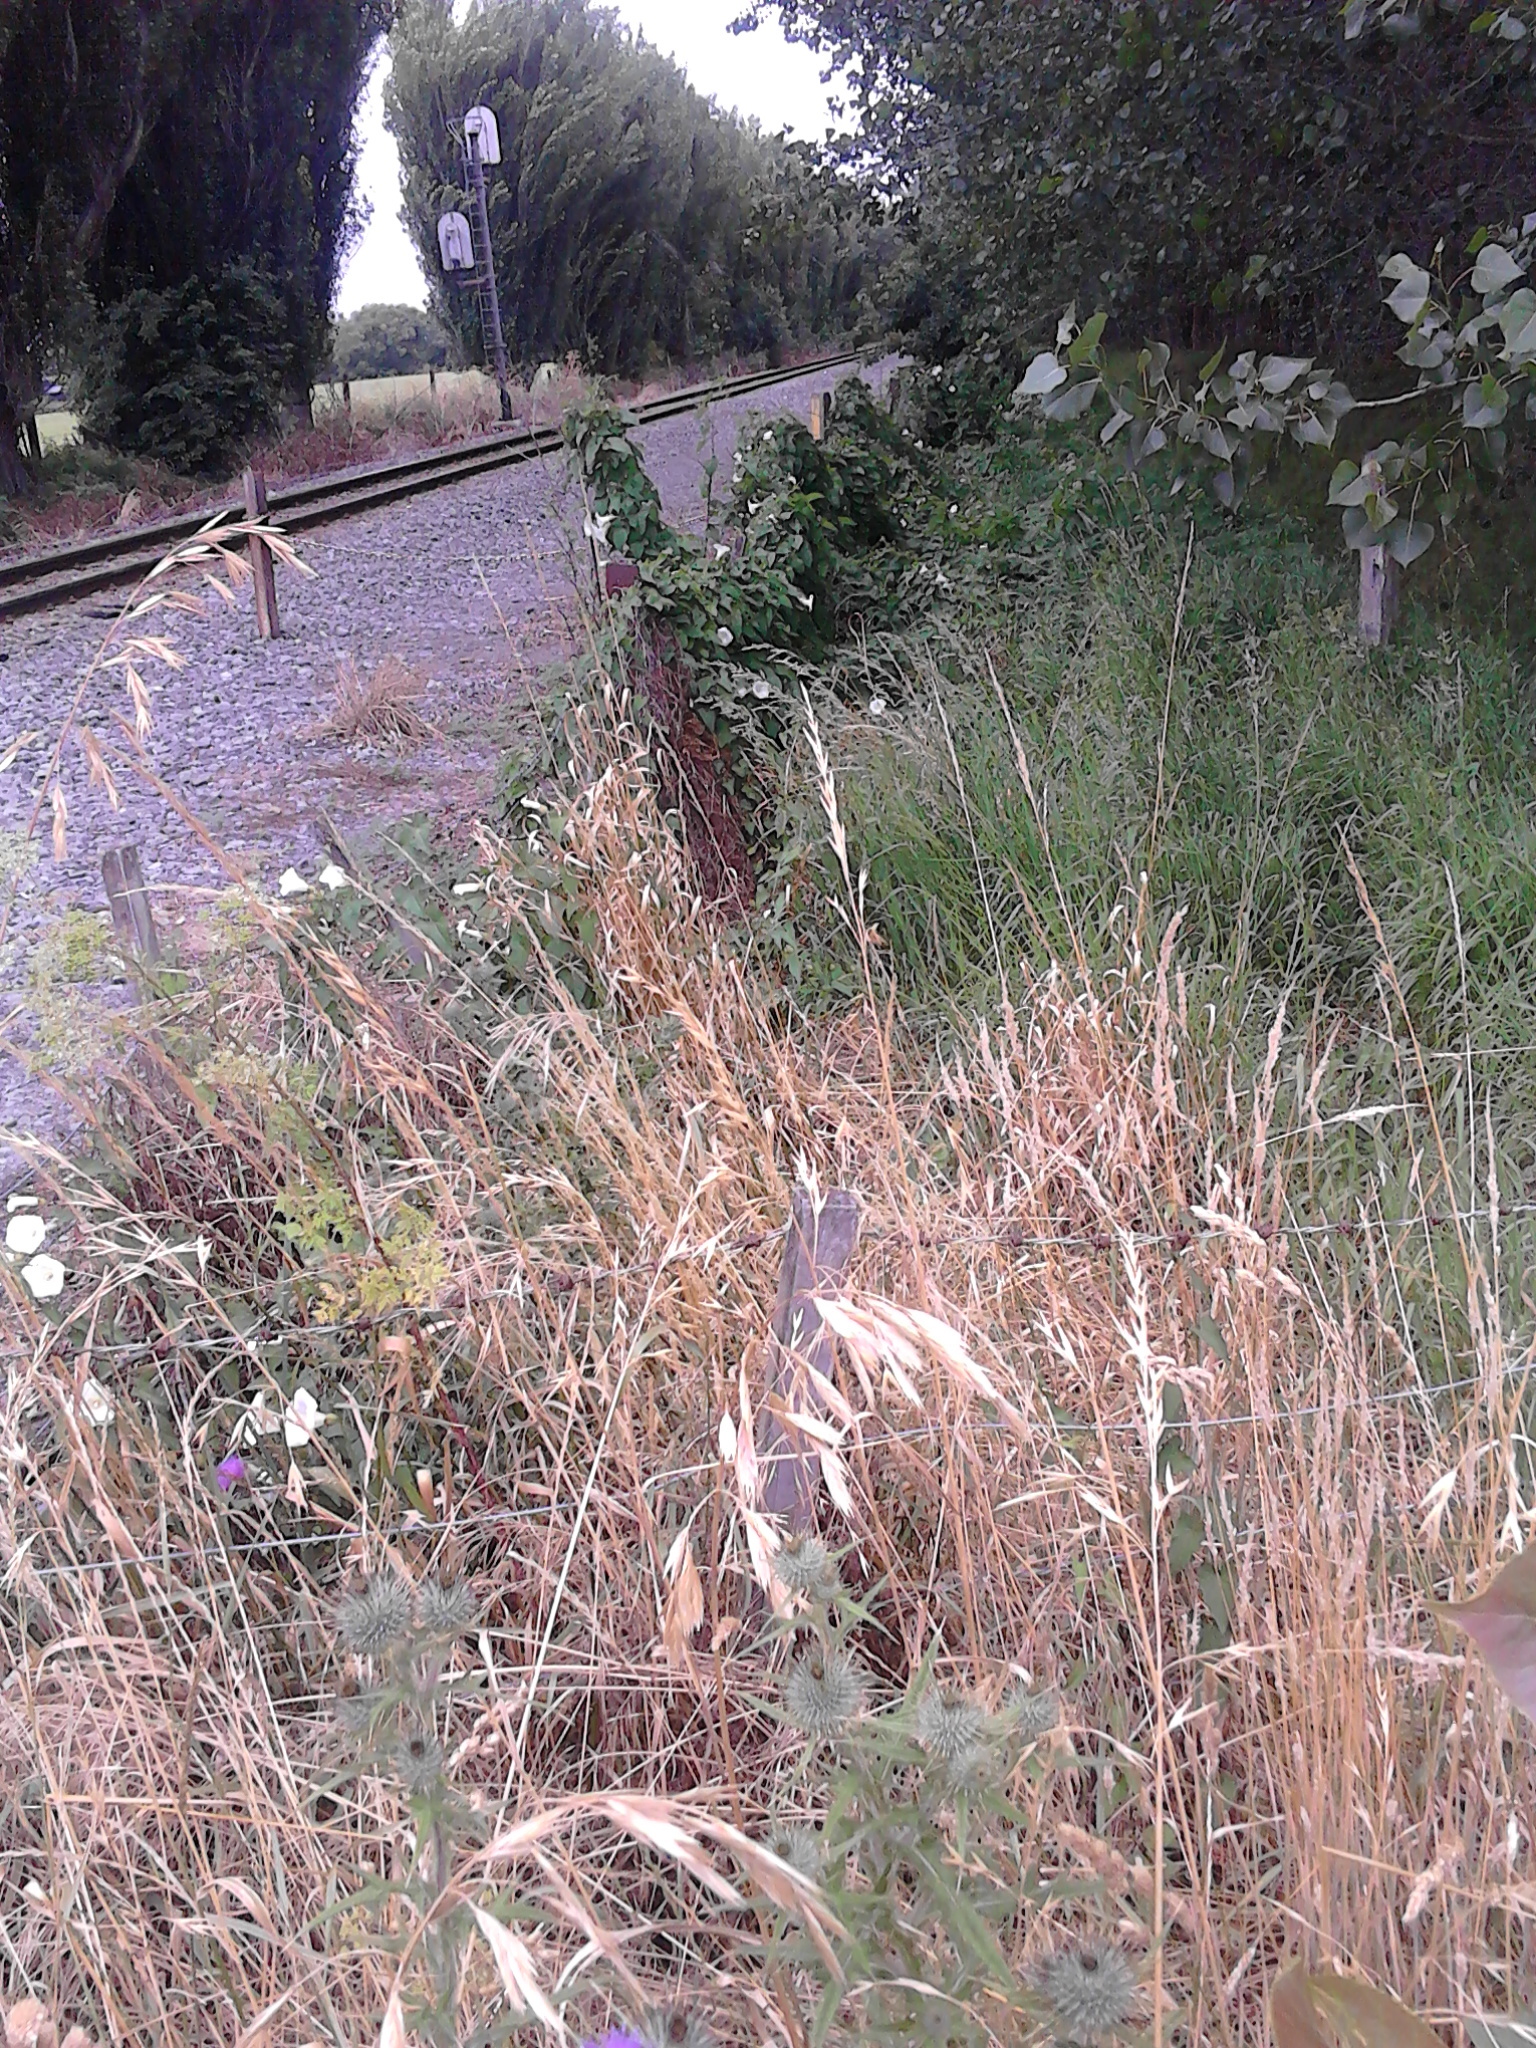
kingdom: Plantae
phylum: Tracheophyta
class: Magnoliopsida
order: Solanales
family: Convolvulaceae
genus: Calystegia
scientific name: Calystegia silvatica
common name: Large bindweed
